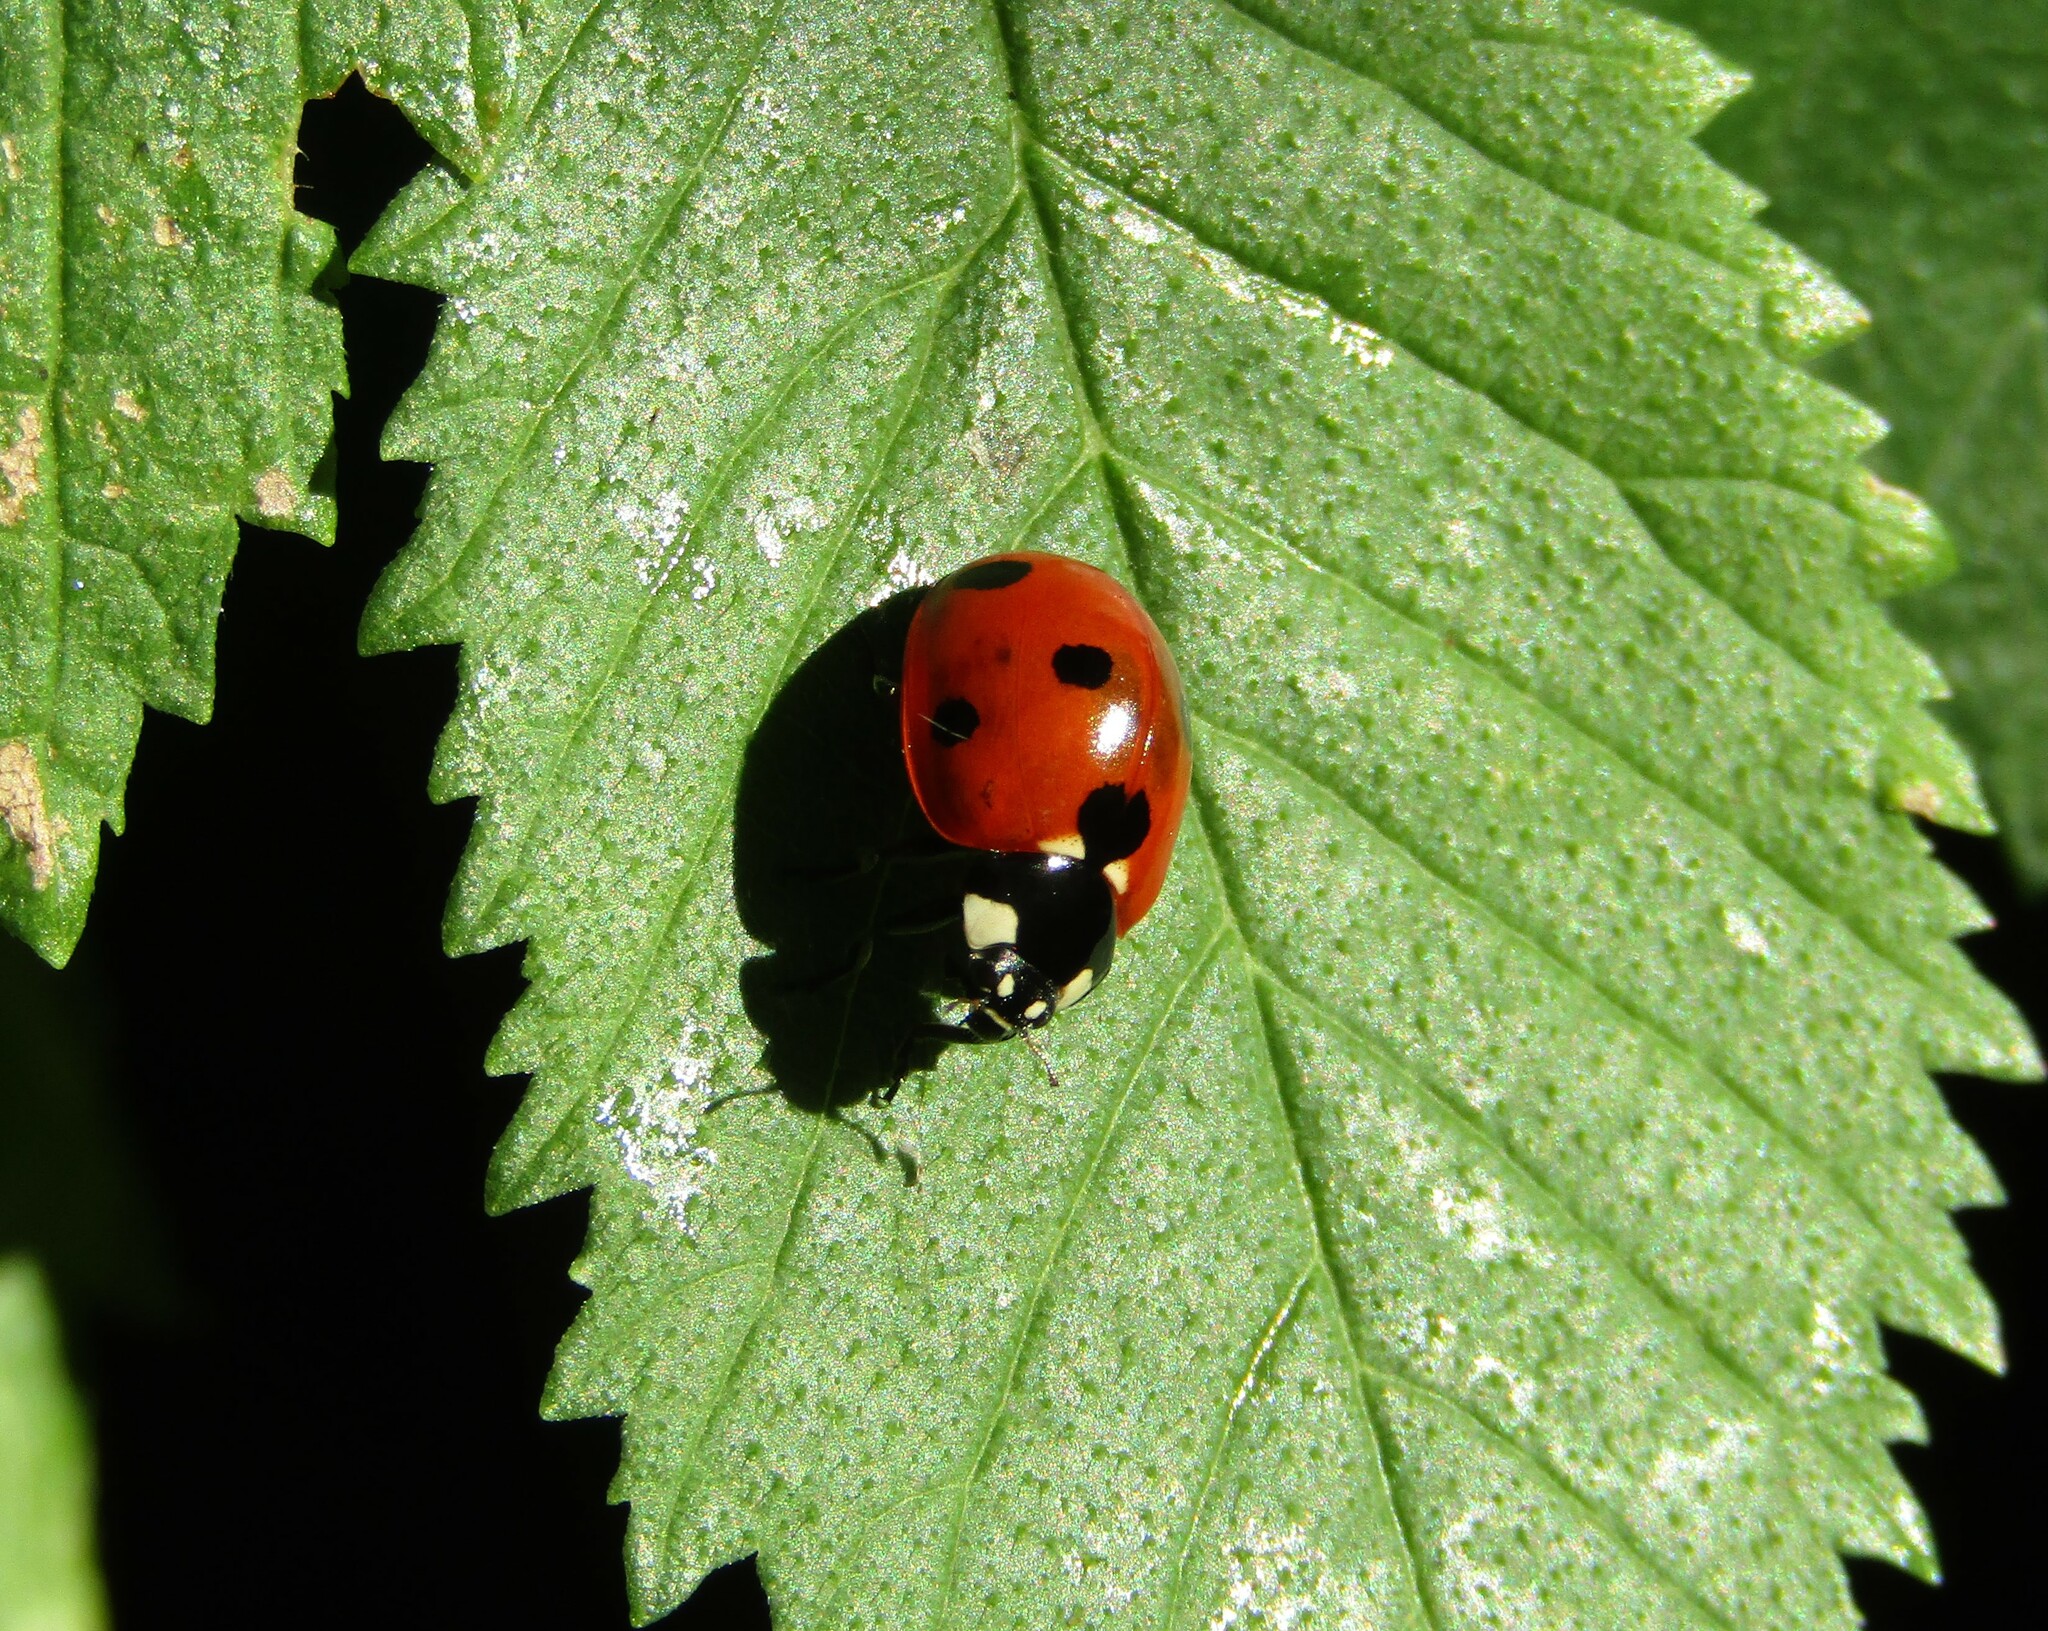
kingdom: Animalia
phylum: Arthropoda
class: Insecta
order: Coleoptera
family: Coccinellidae
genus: Coccinella
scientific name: Coccinella septempunctata
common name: Sevenspotted lady beetle
